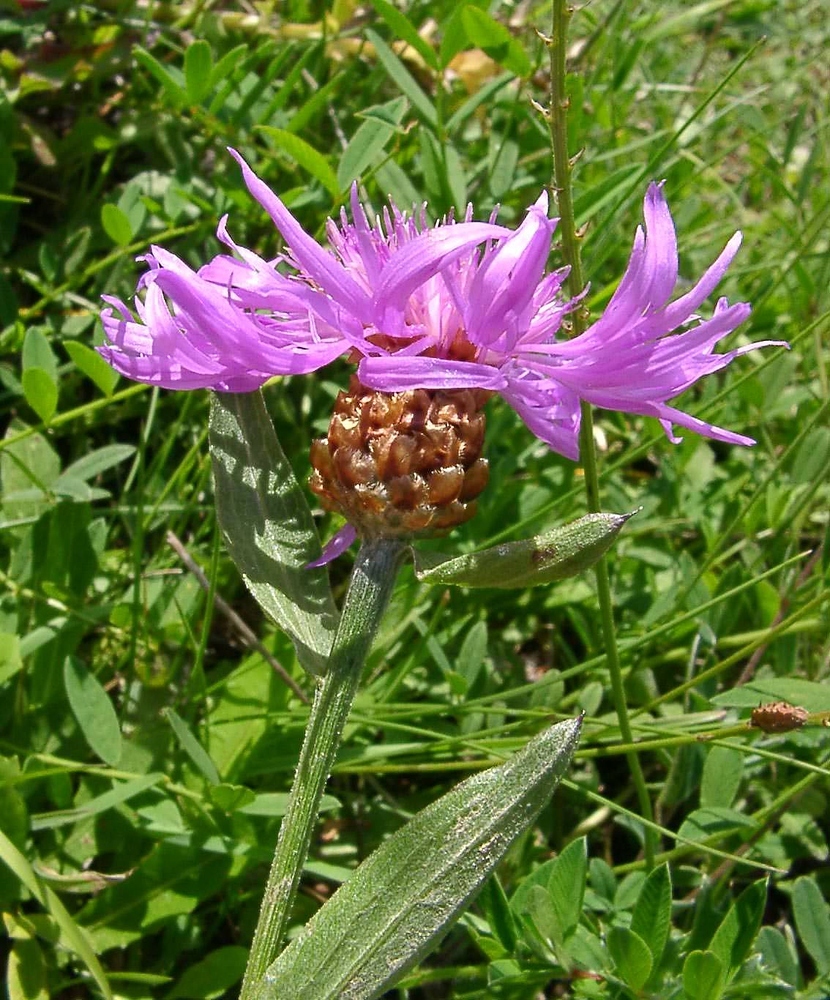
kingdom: Plantae
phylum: Tracheophyta
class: Magnoliopsida
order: Asterales
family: Asteraceae
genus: Centaurea
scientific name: Centaurea jacea
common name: Brown knapweed
